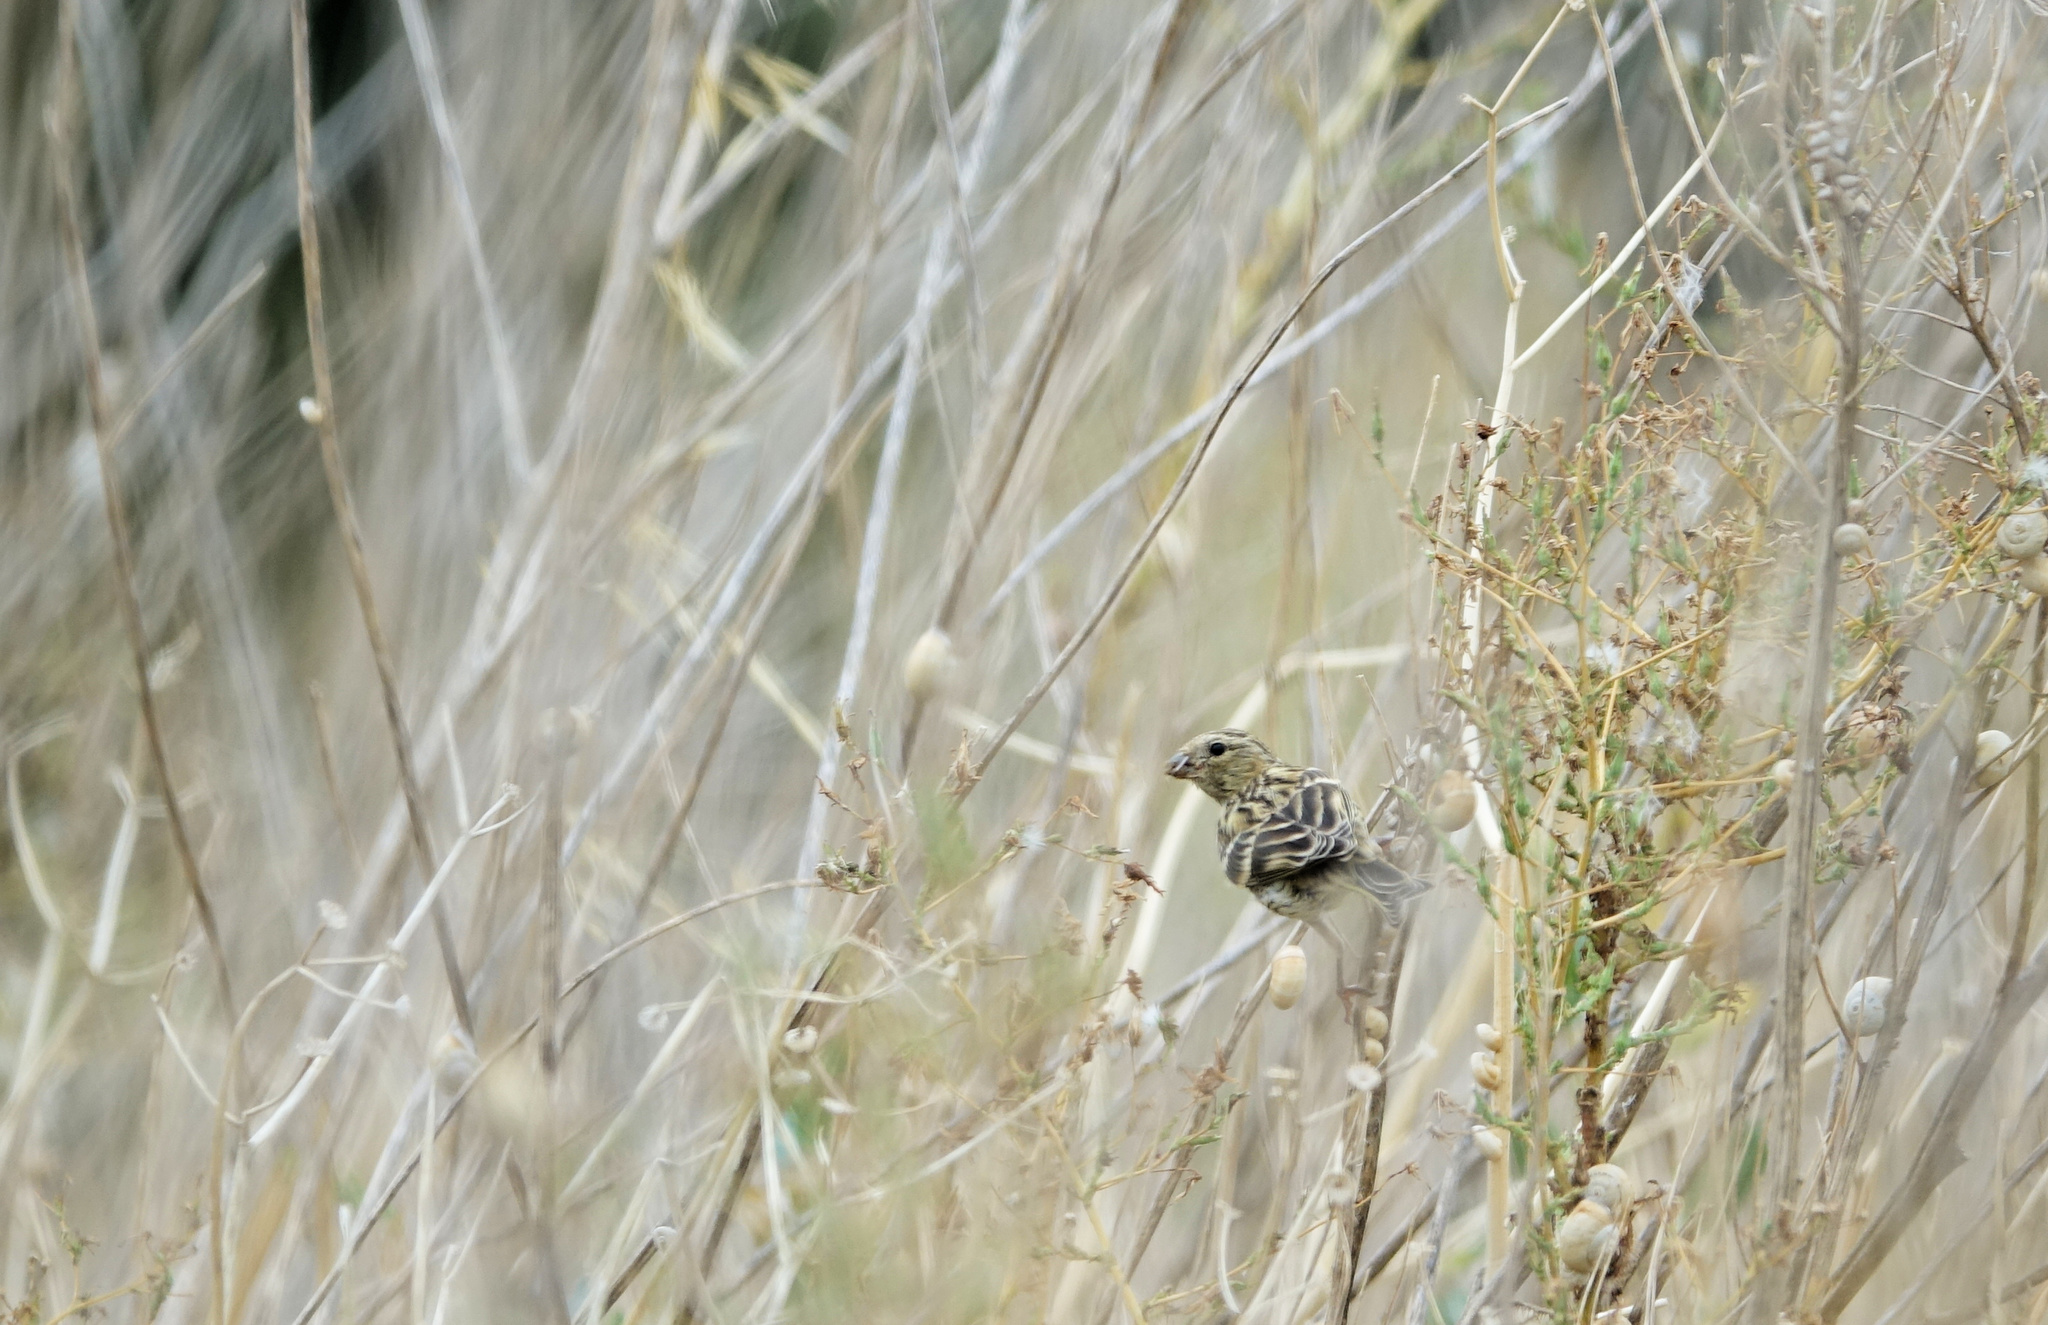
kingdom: Animalia
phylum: Chordata
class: Aves
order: Passeriformes
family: Fringillidae
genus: Serinus
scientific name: Serinus serinus
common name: European serin
